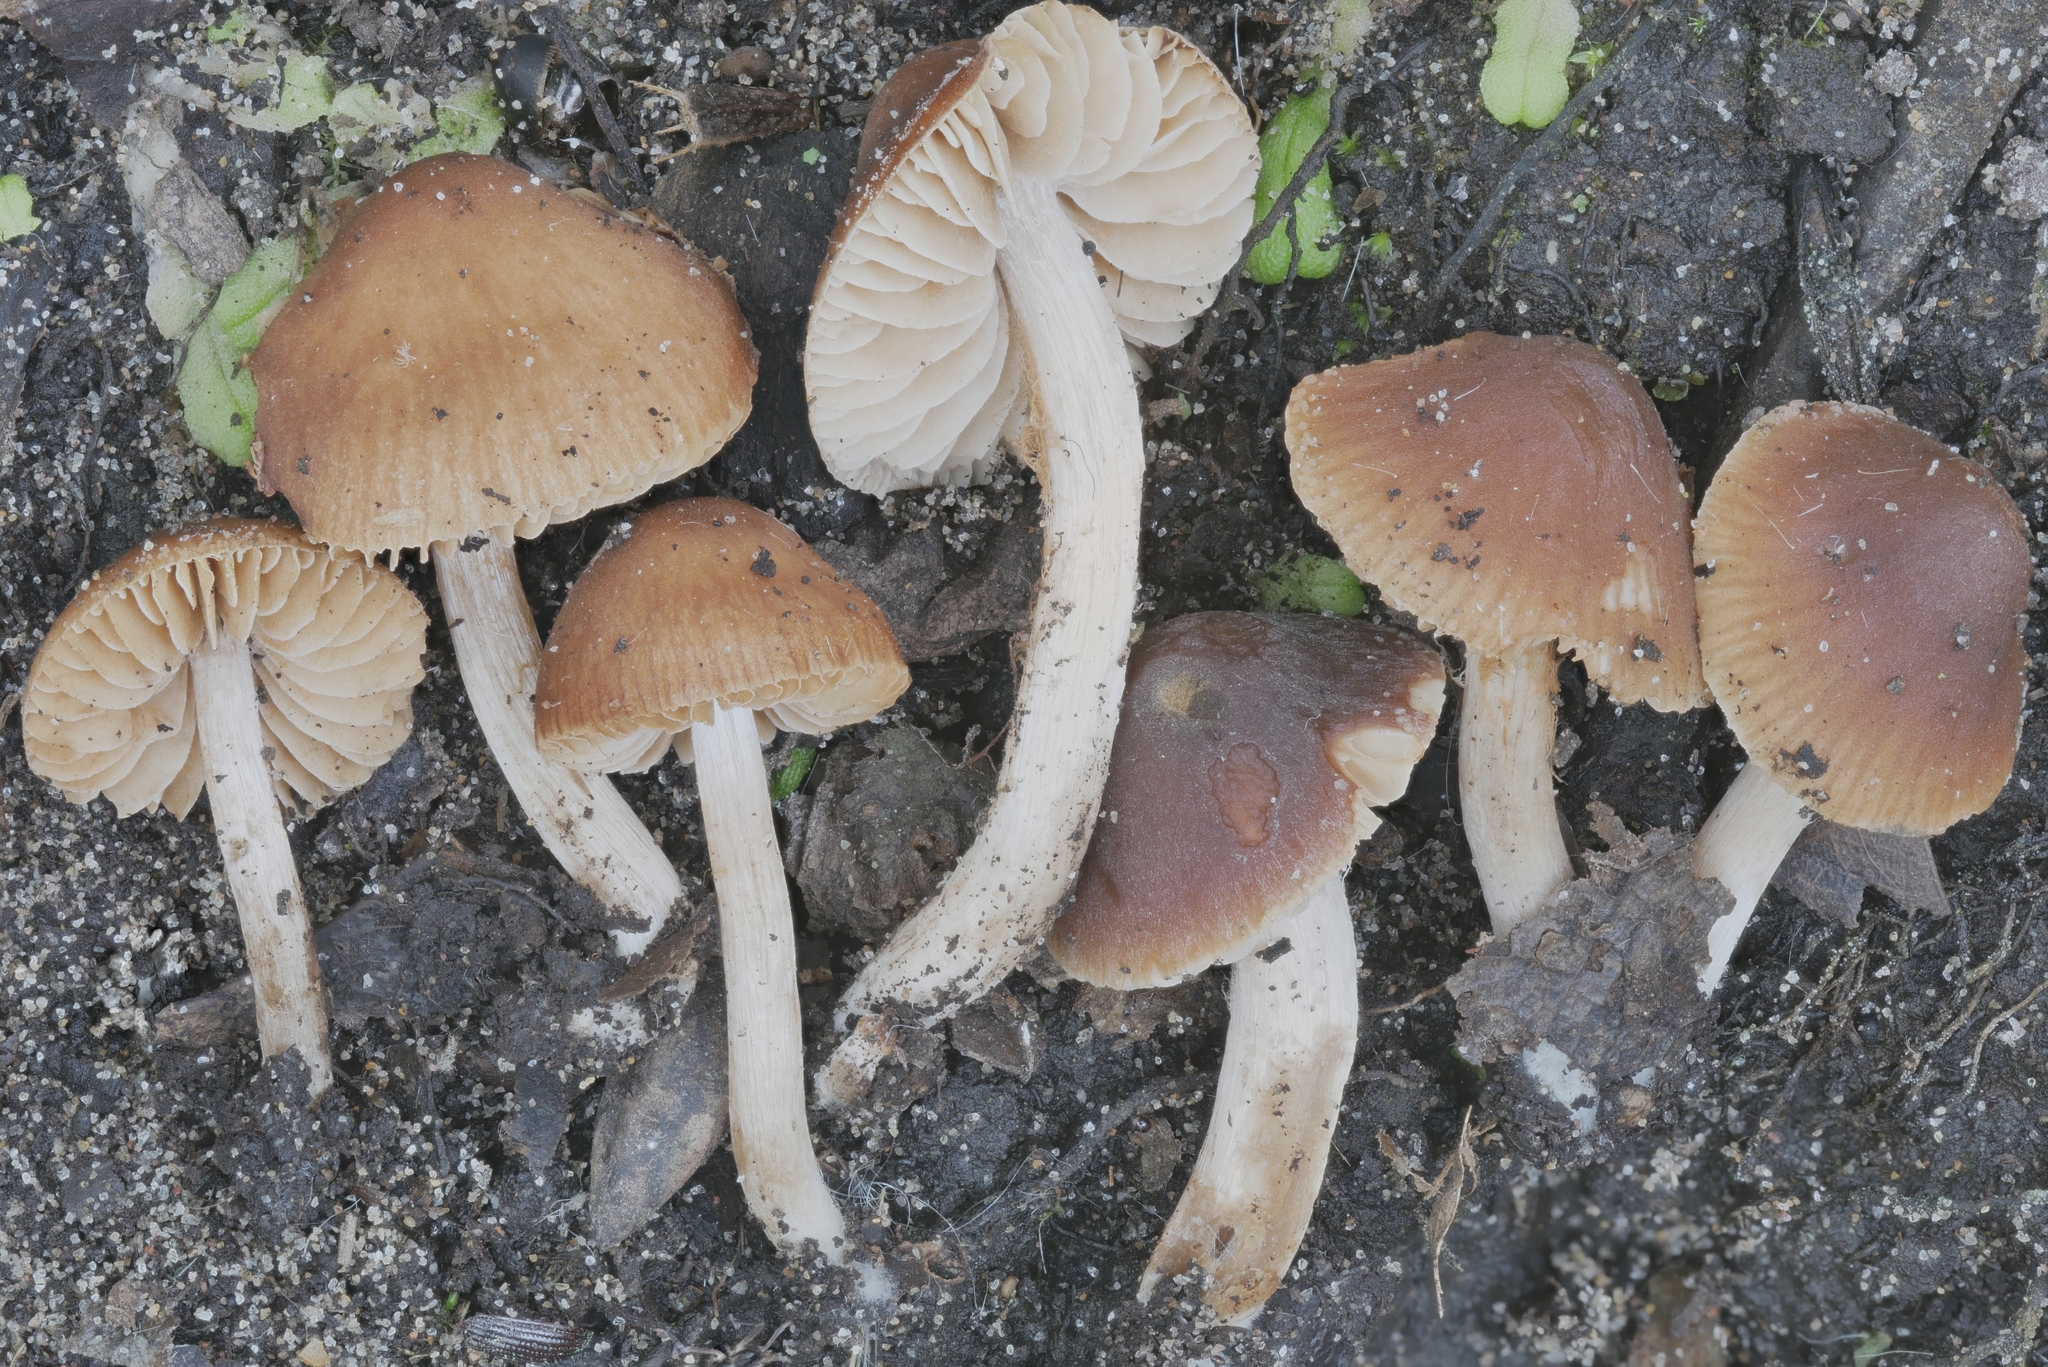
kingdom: Fungi
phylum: Basidiomycota
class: Agaricomycetes
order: Agaricales
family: Hymenogastraceae
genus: Naucoria
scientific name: Naucoria salicis
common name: Willow aldercap
